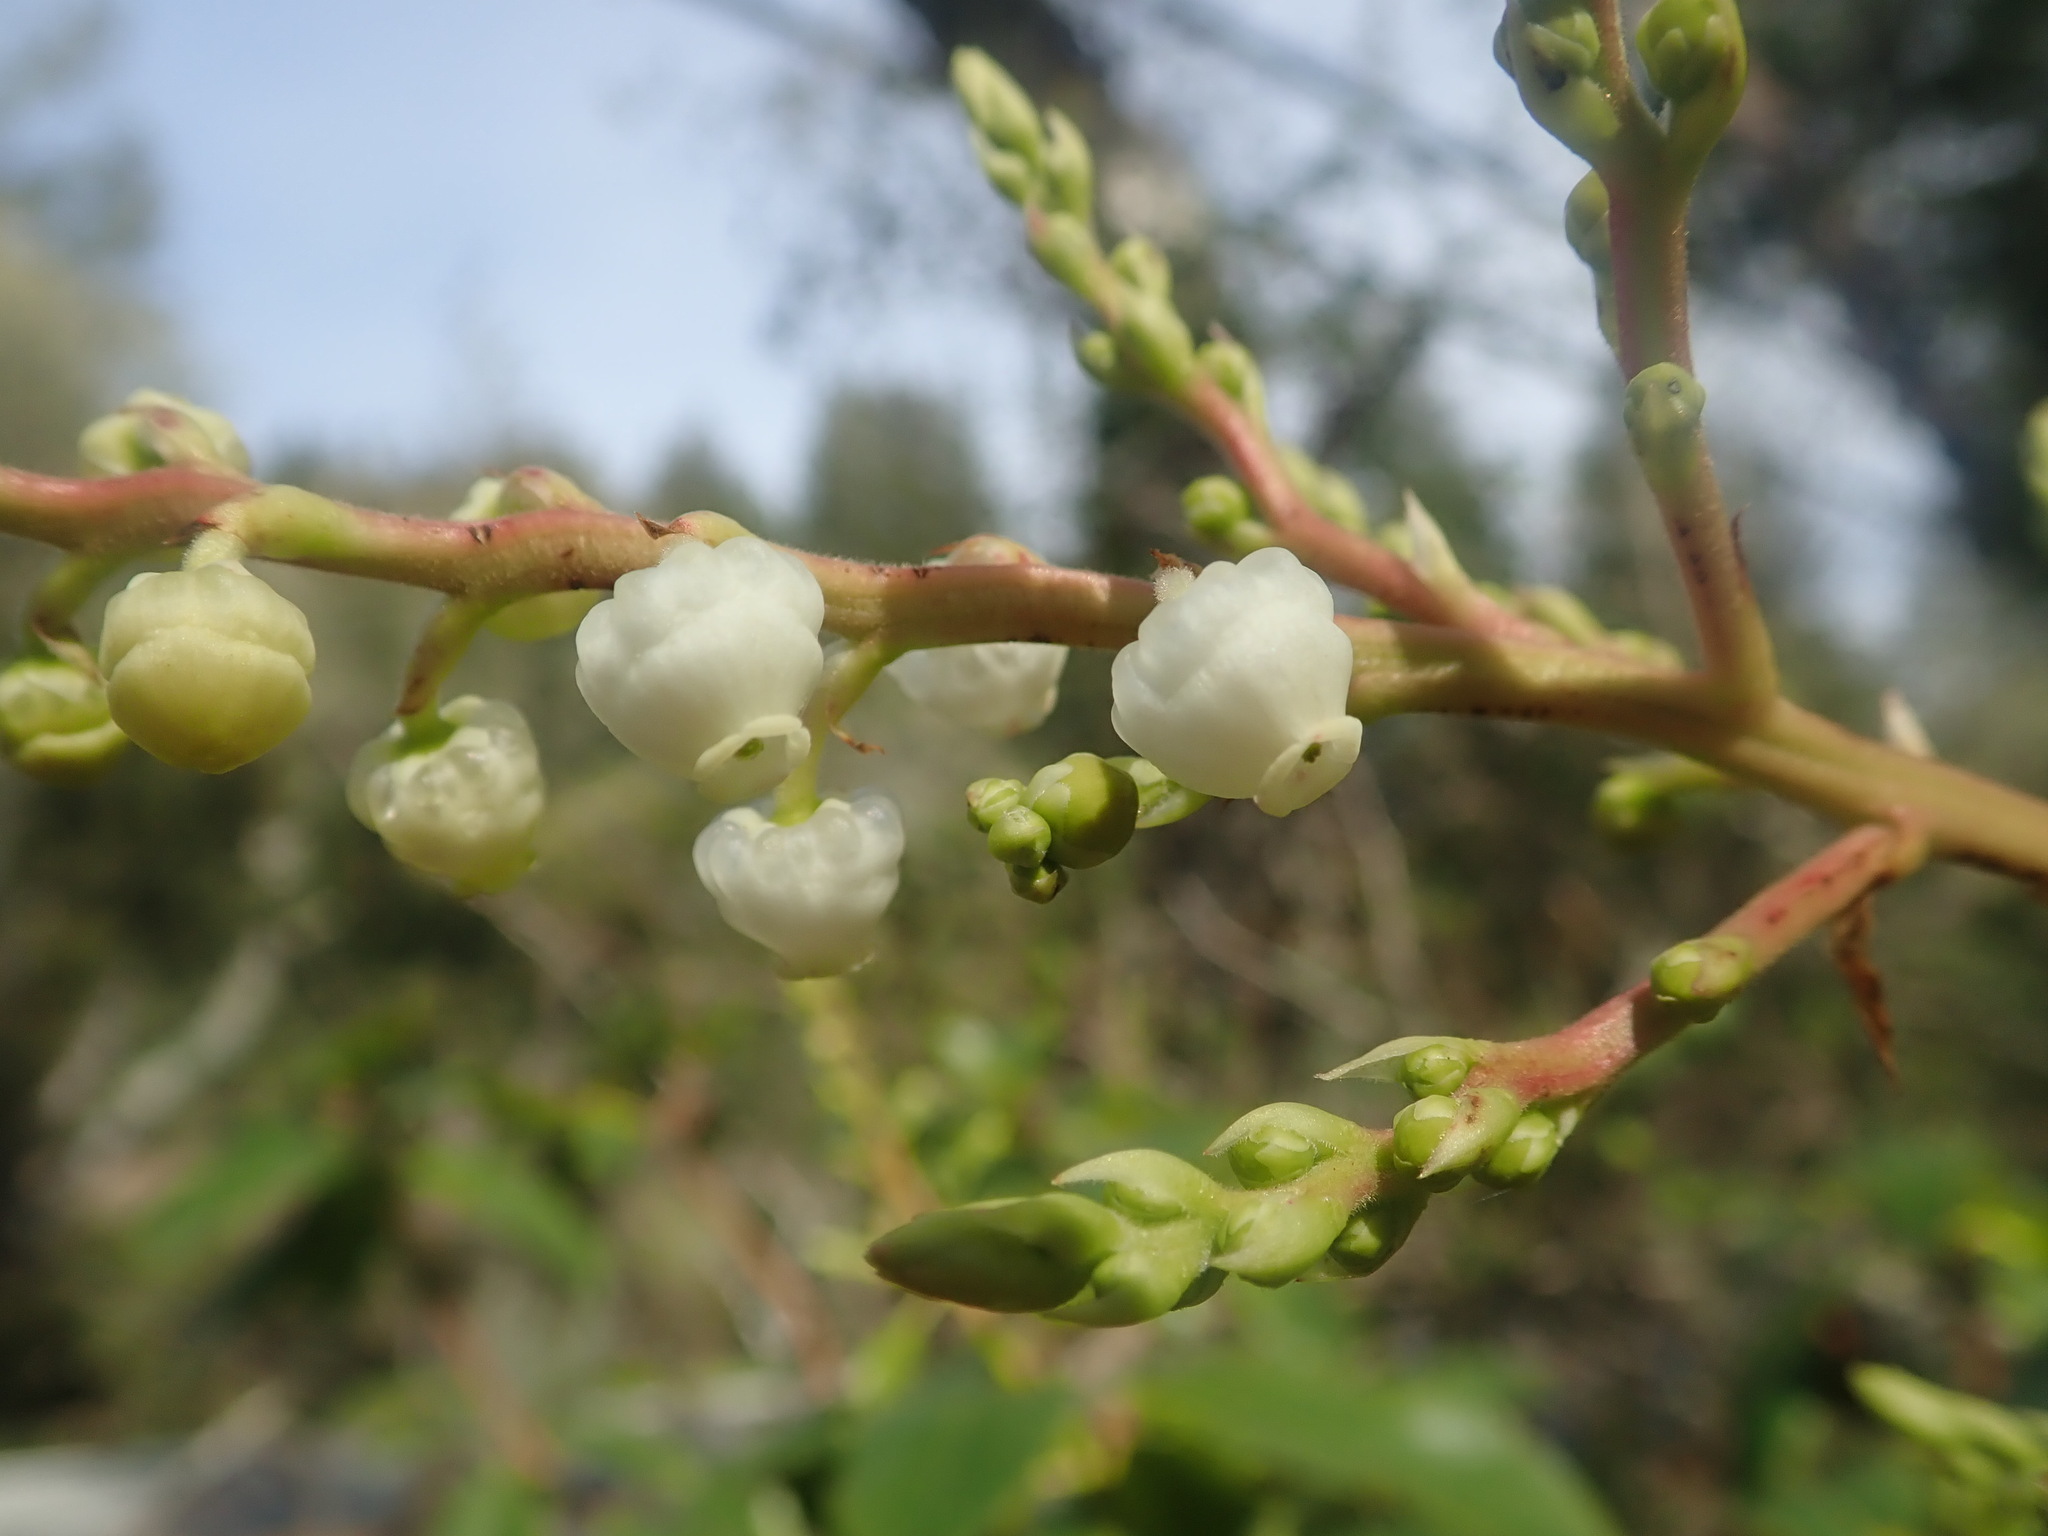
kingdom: Plantae
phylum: Tracheophyta
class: Magnoliopsida
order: Ericales
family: Ericaceae
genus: Arbutus
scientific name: Arbutus menziesii
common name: Pacific madrone
